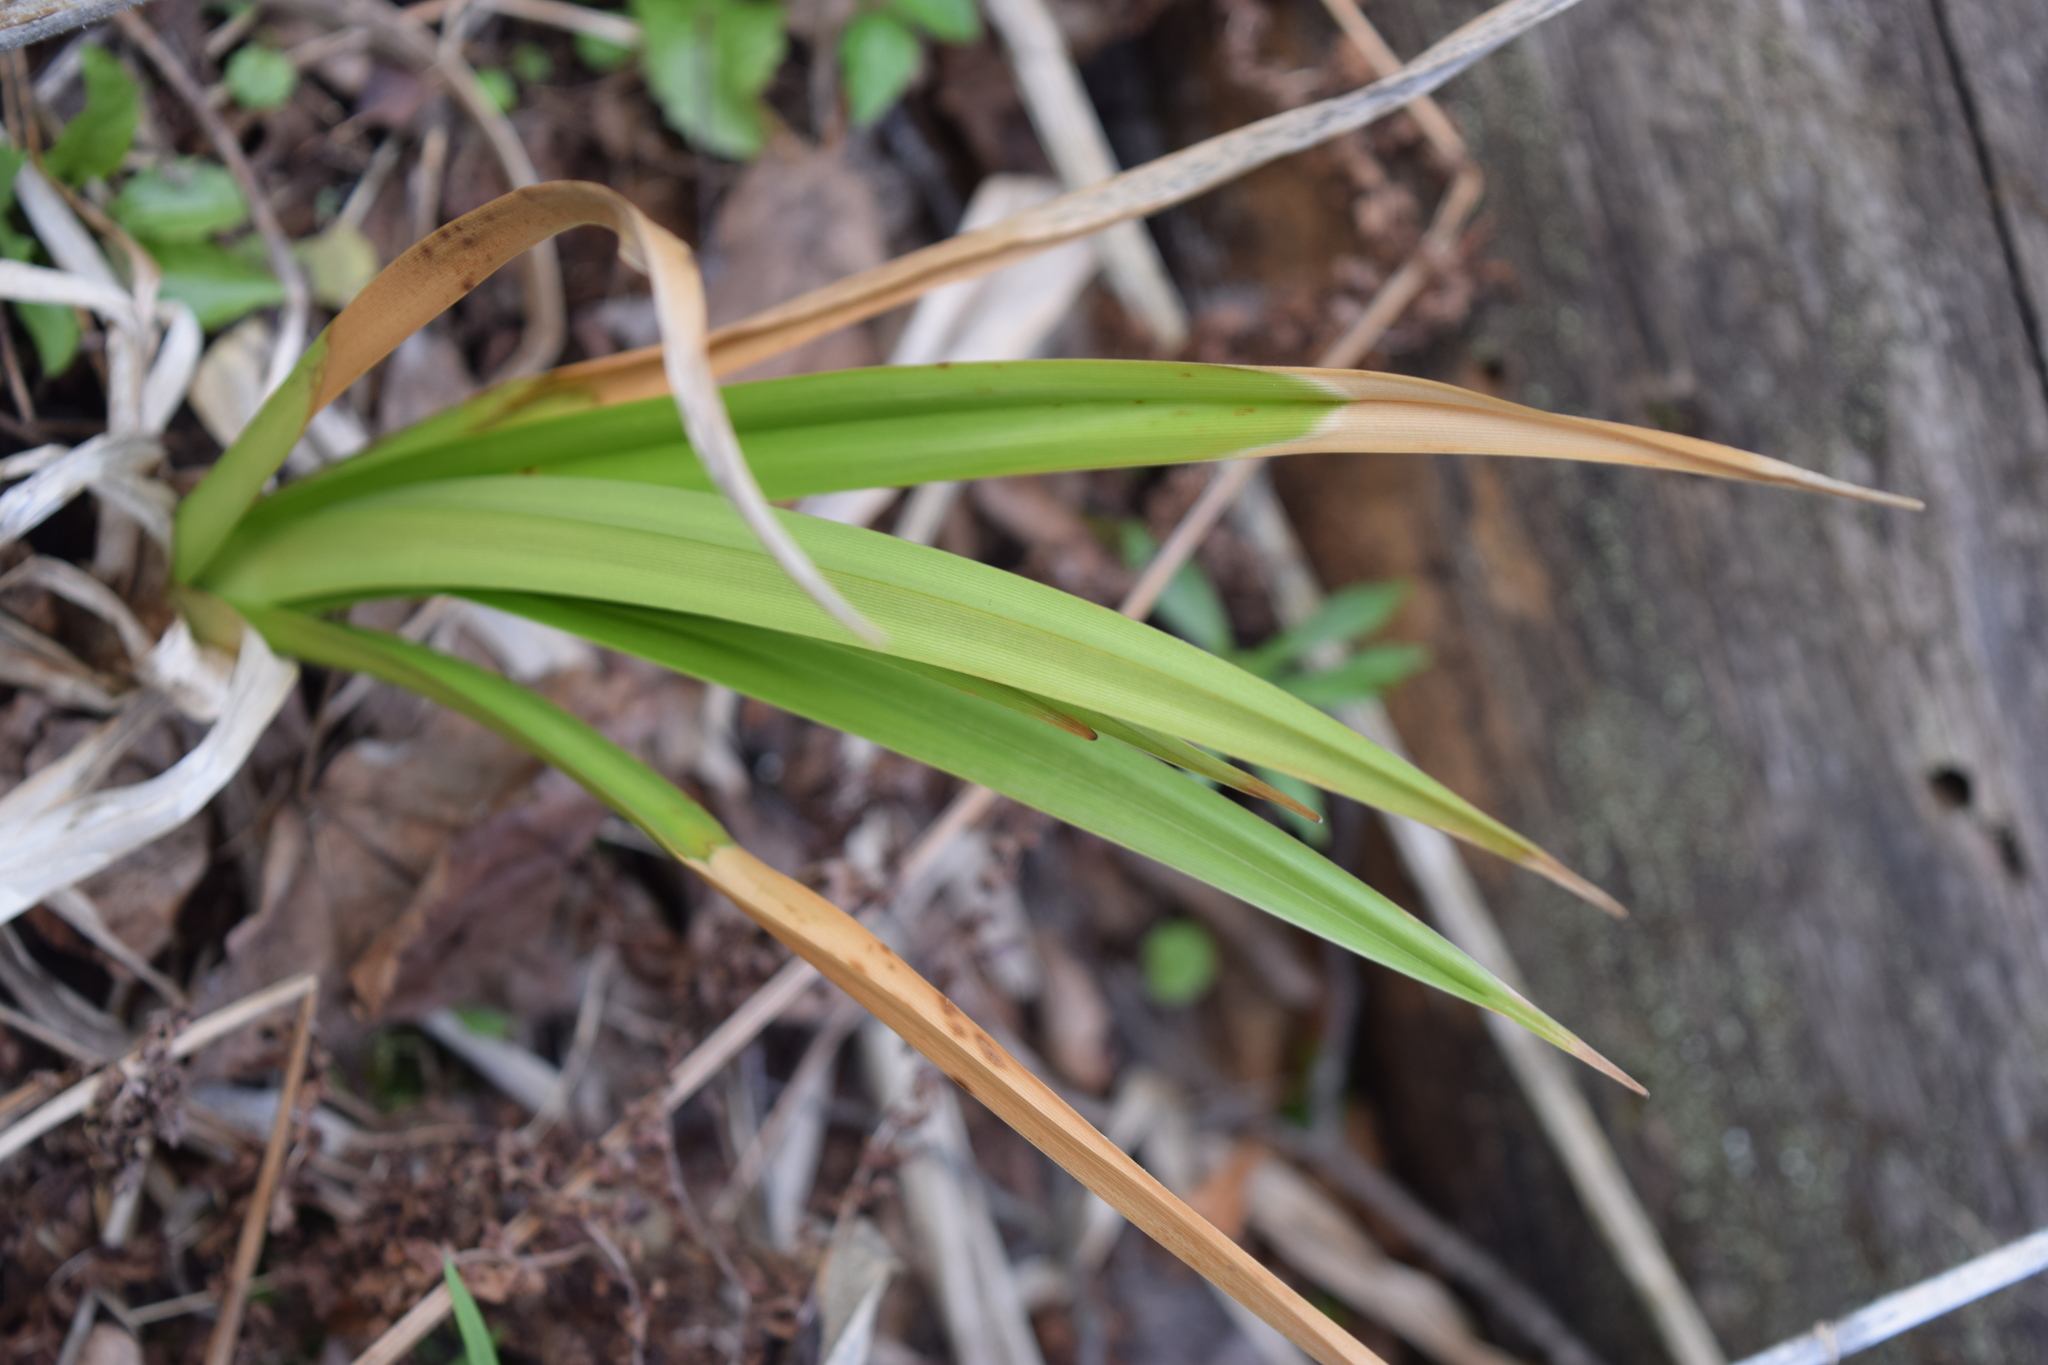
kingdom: Plantae
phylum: Tracheophyta
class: Liliopsida
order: Poales
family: Cyperaceae
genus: Scirpus
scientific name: Scirpus sylvaticus
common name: Wood club-rush
